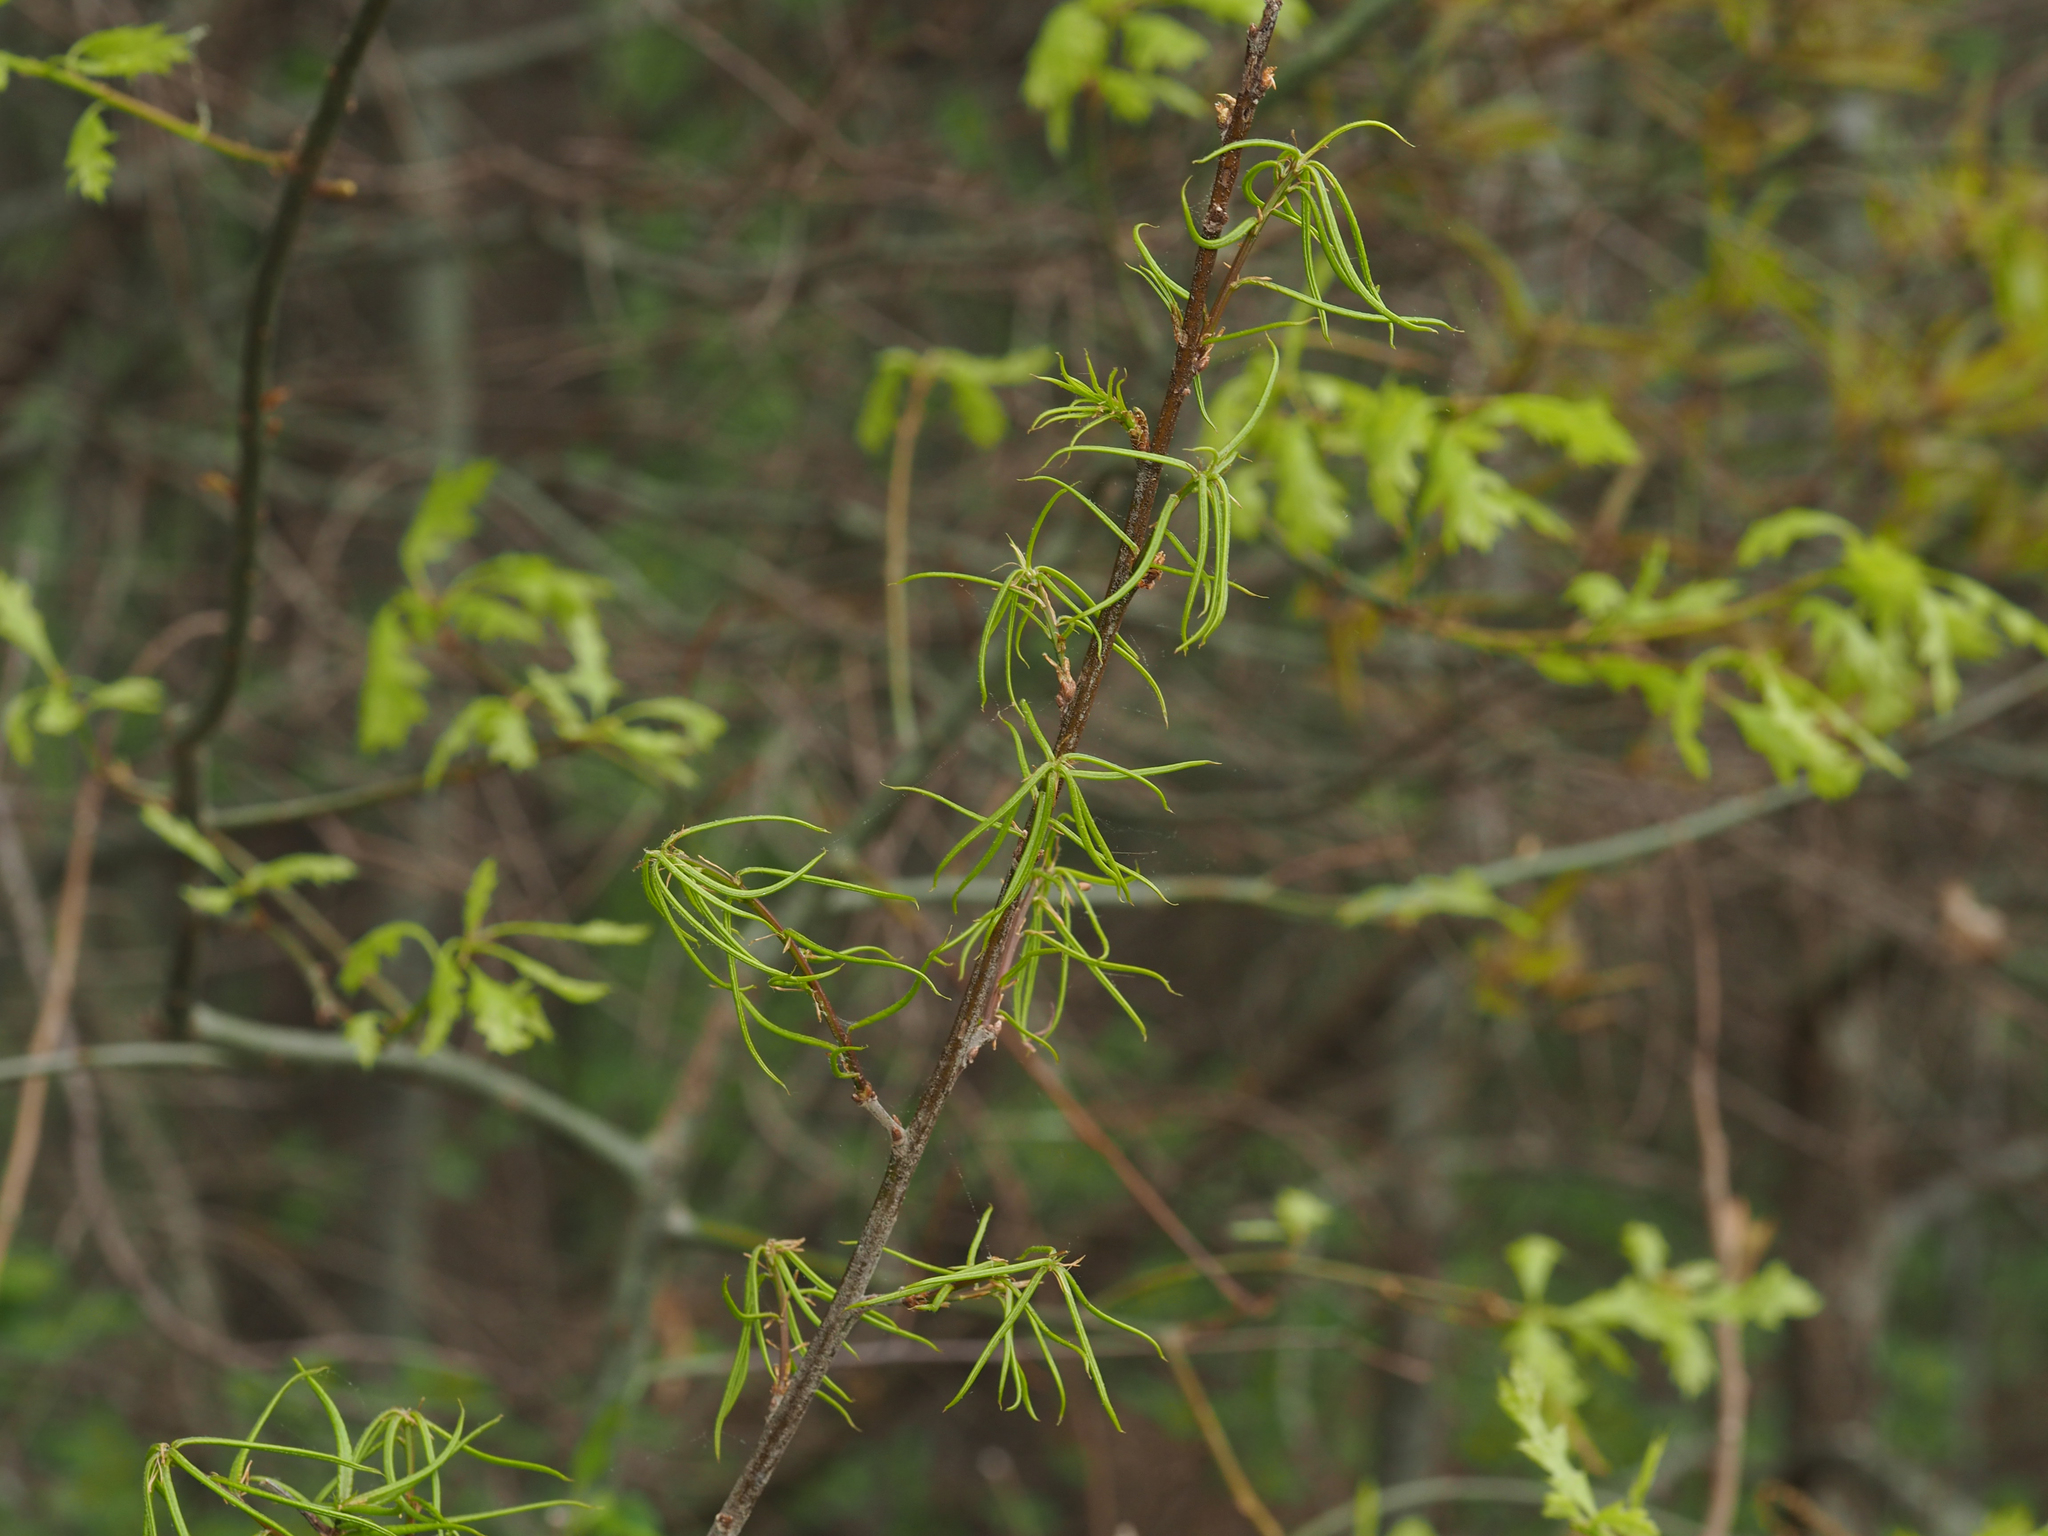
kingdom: Plantae
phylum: Tracheophyta
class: Magnoliopsida
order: Fagales
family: Fagaceae
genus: Quercus
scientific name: Quercus phellos
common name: Willow oak
